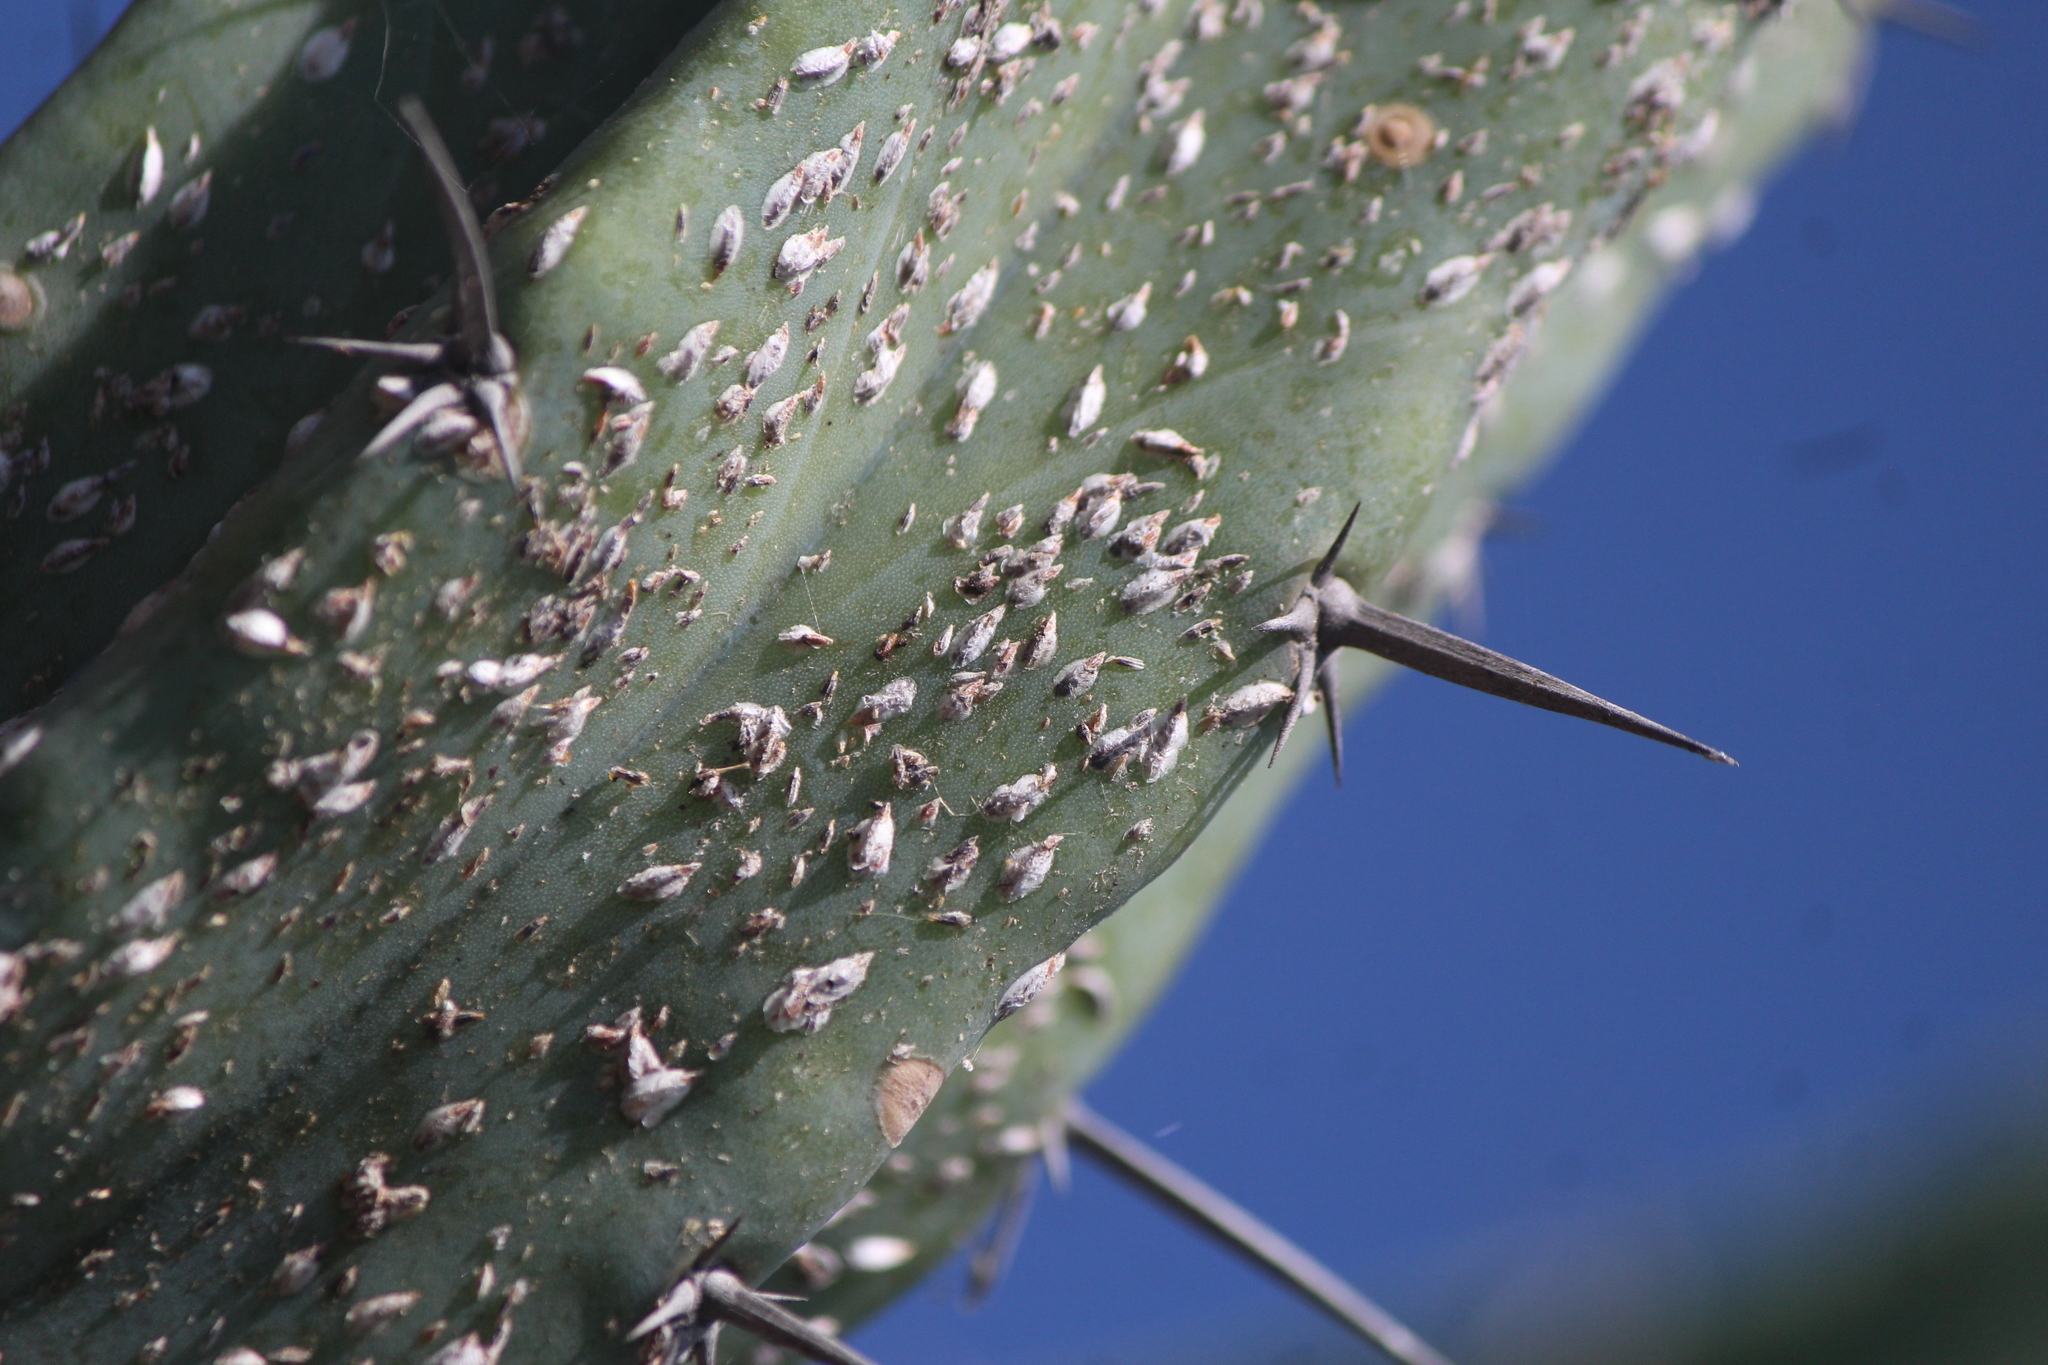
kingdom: Animalia
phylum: Arthropoda
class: Insecta
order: Hemiptera
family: Diaspididae
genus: Opuntiaspis
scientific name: Opuntiaspis philococcus
